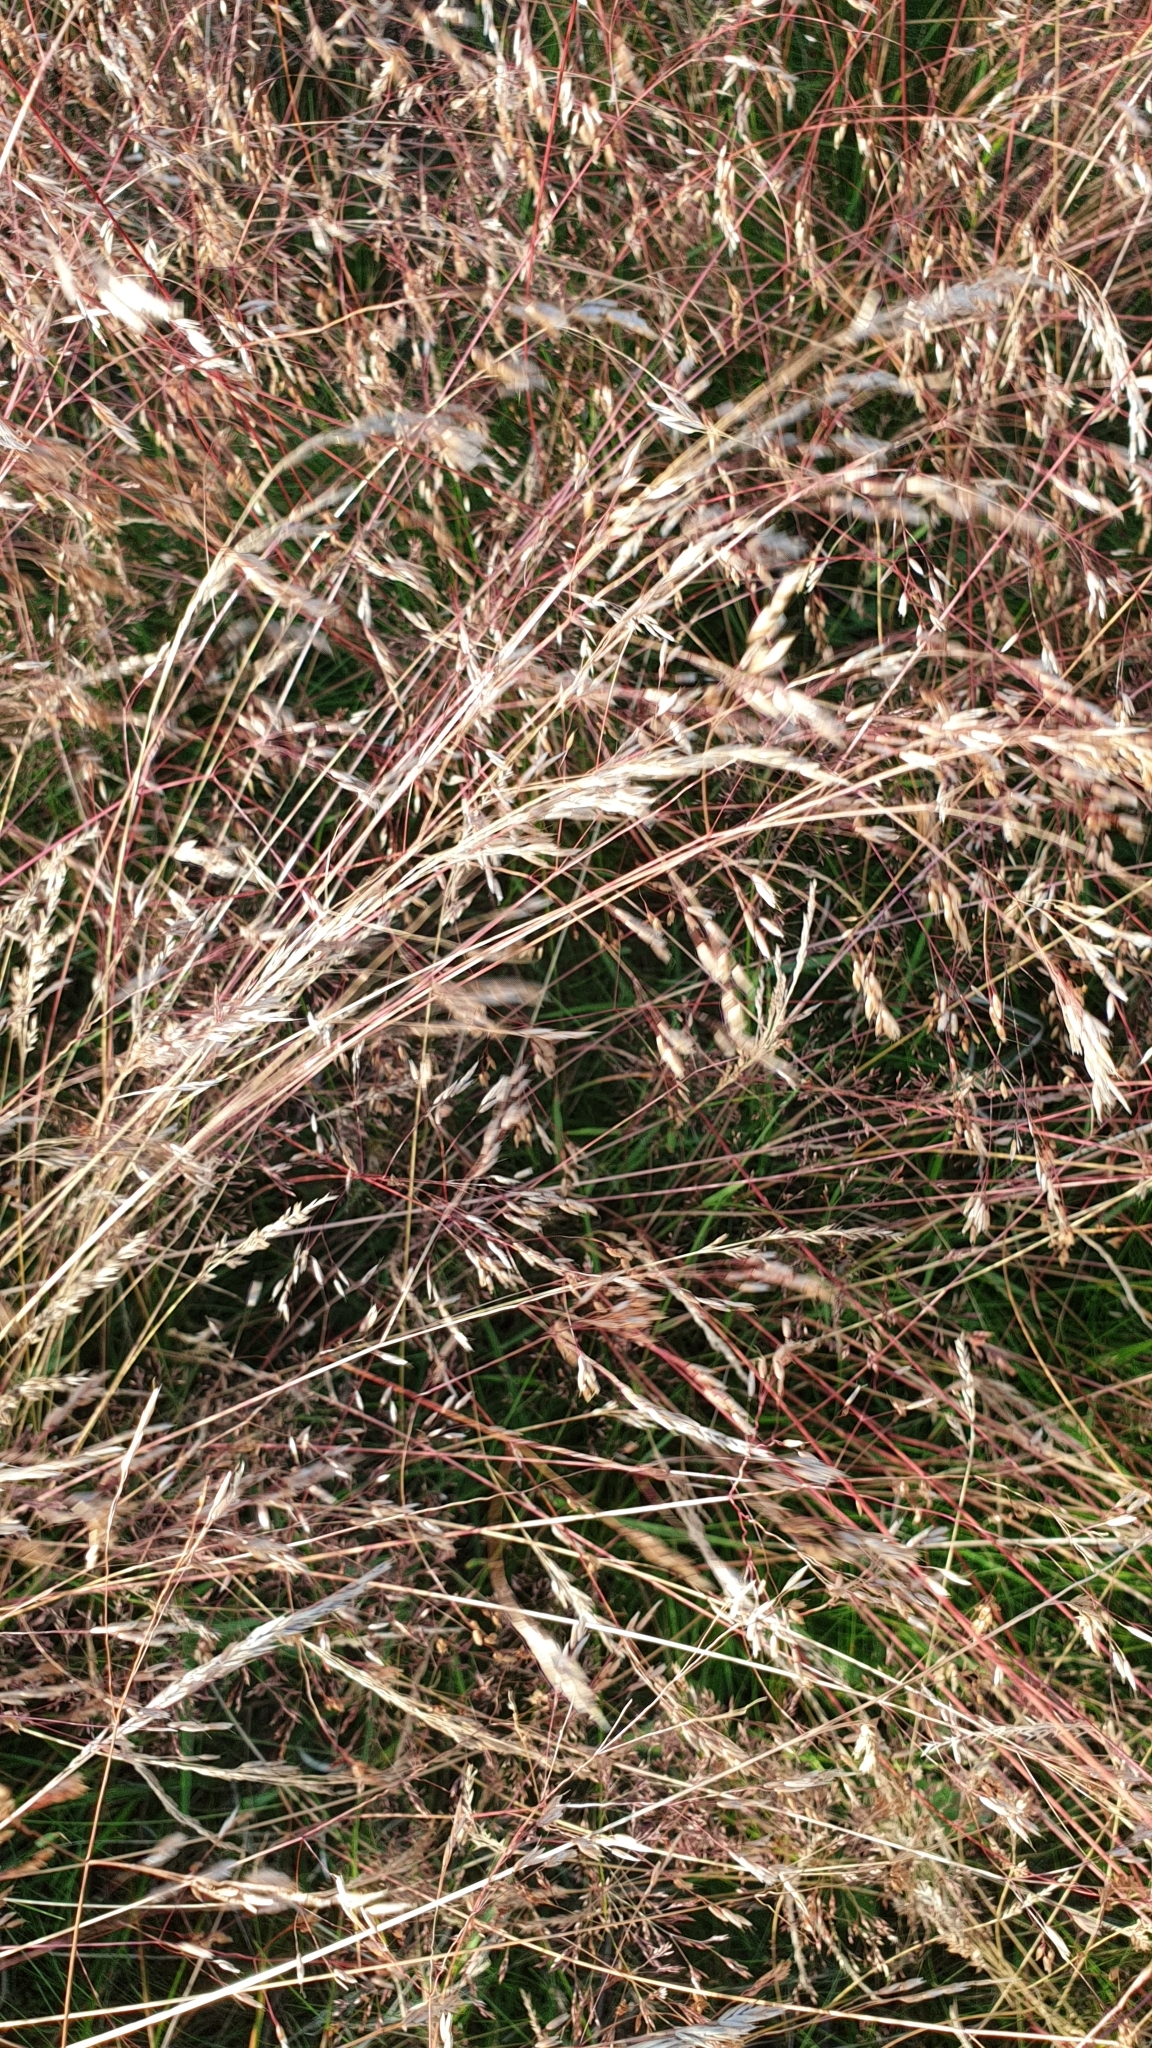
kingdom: Plantae
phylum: Tracheophyta
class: Liliopsida
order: Poales
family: Poaceae
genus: Avenella
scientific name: Avenella flexuosa
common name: Wavy hairgrass
